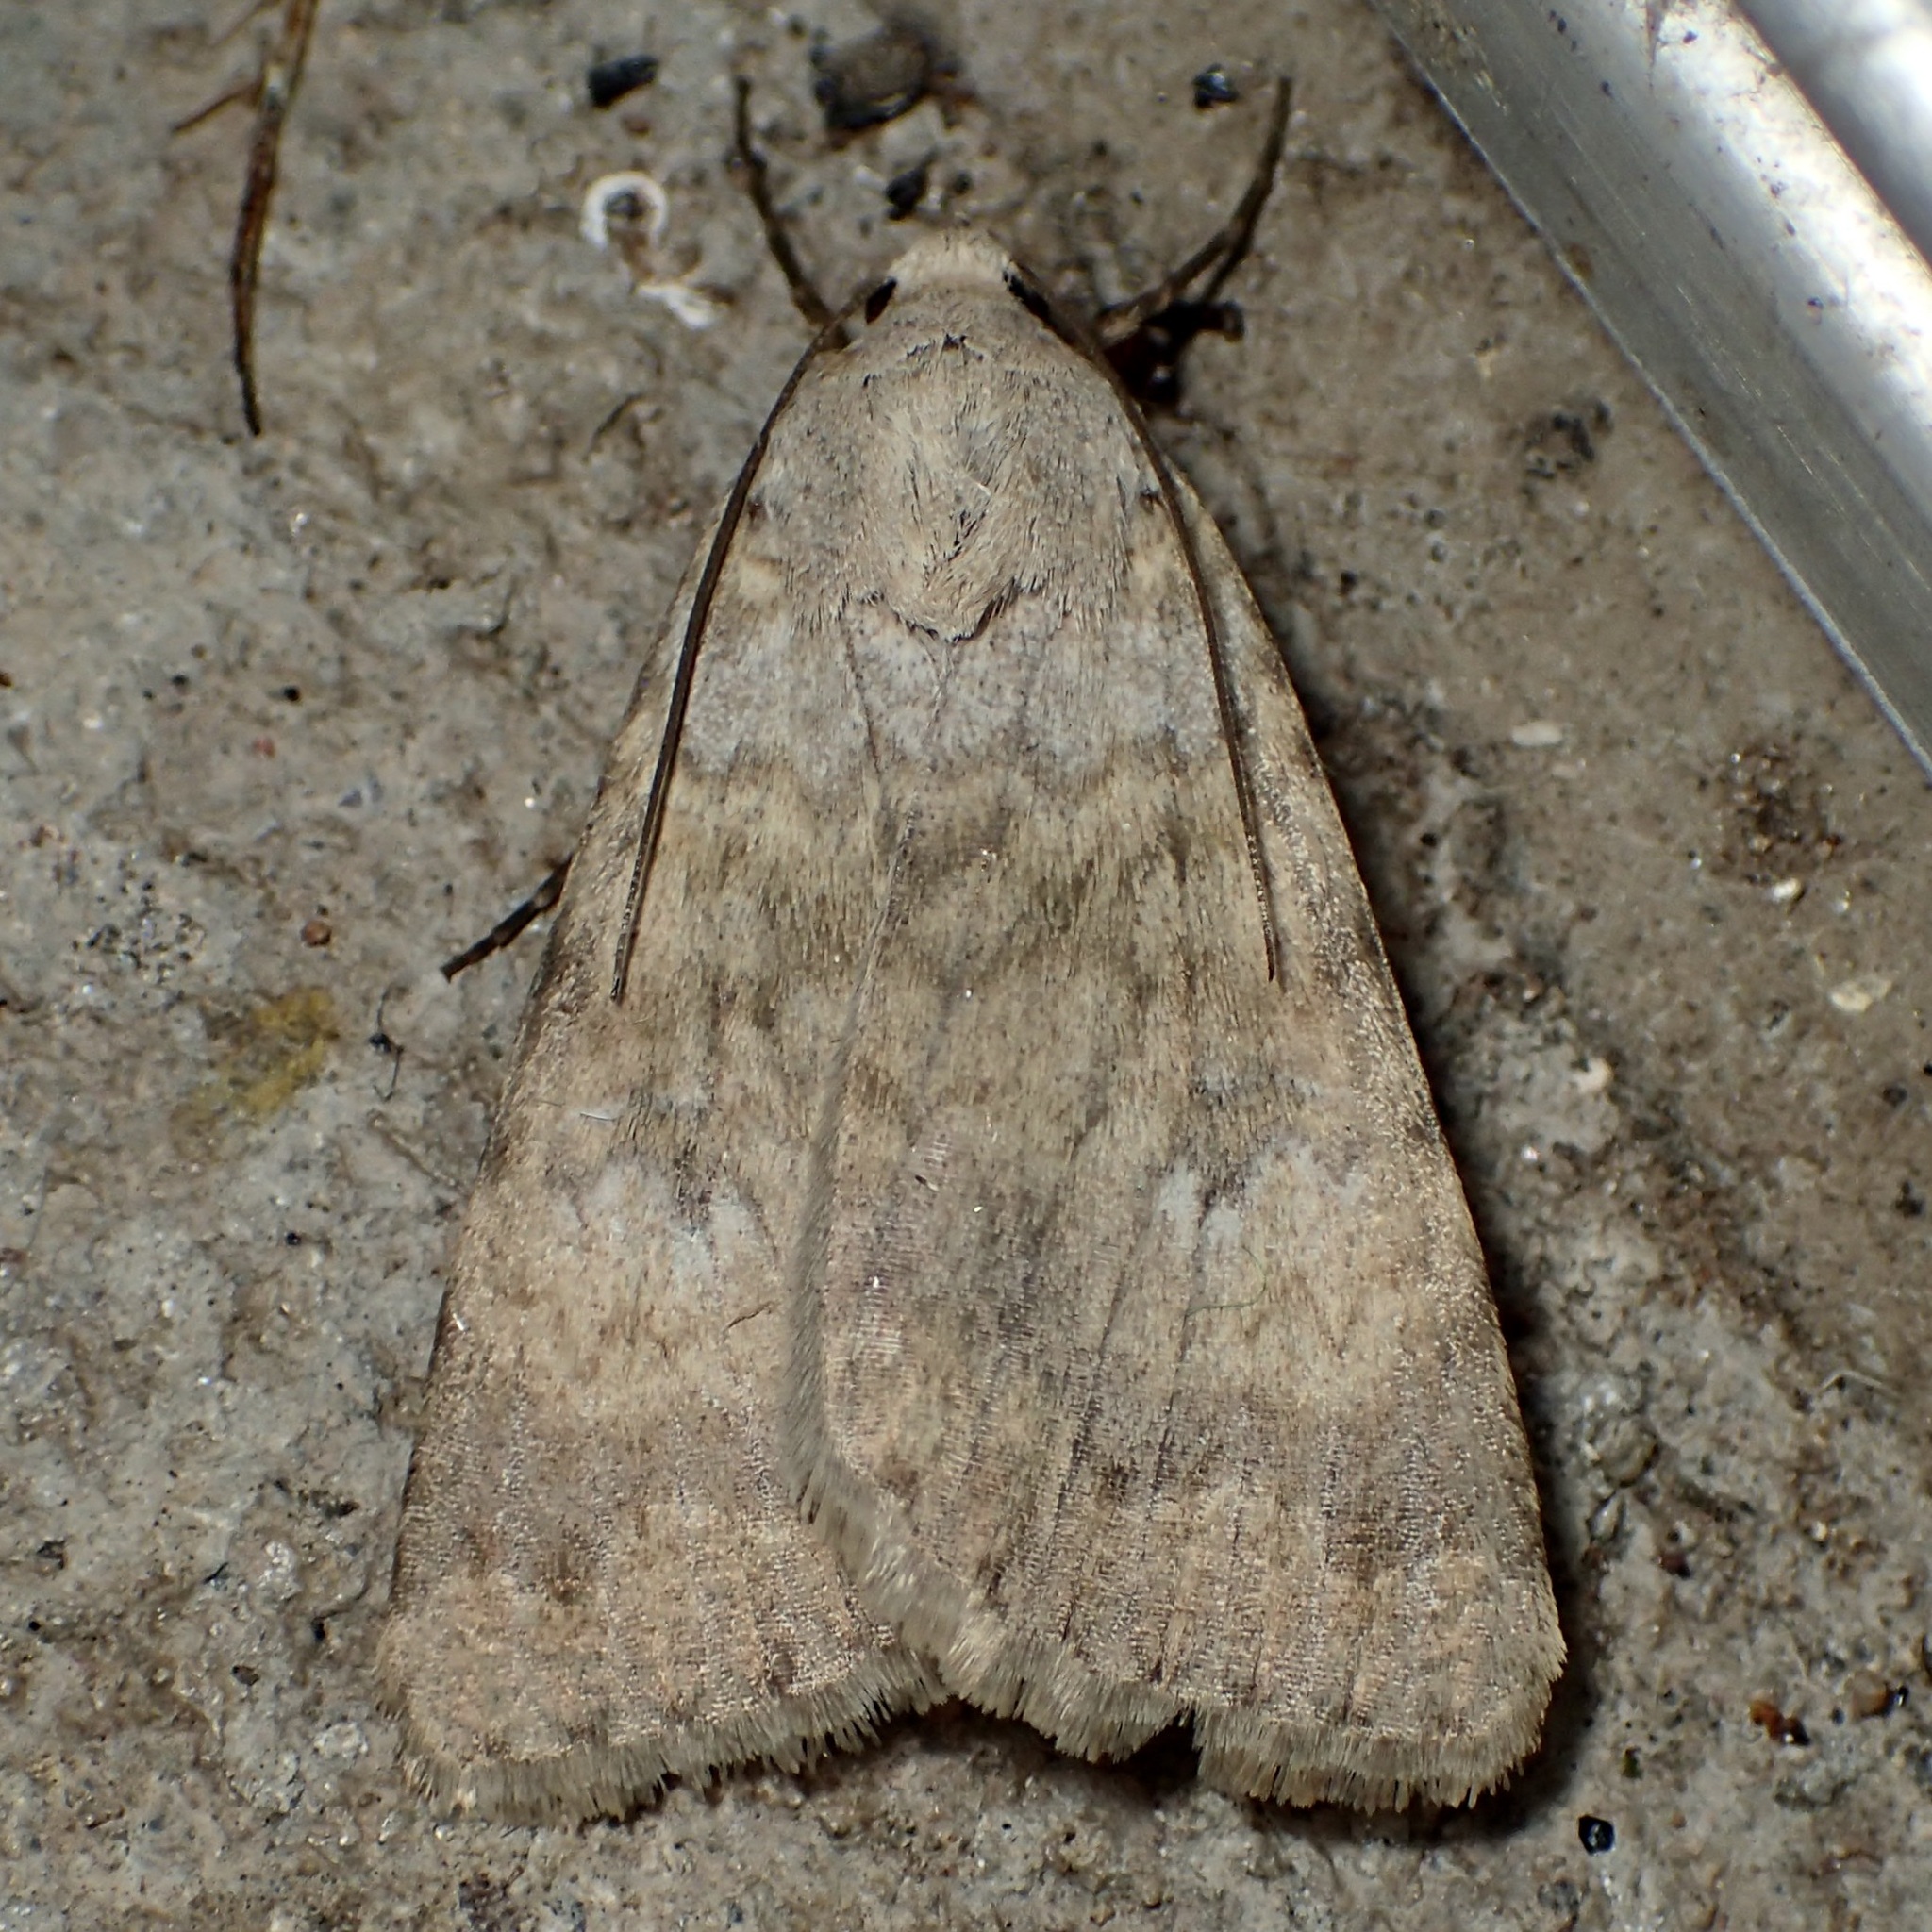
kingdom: Animalia
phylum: Arthropoda
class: Insecta
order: Lepidoptera
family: Erebidae
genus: Drasteria
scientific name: Drasteria inepta
